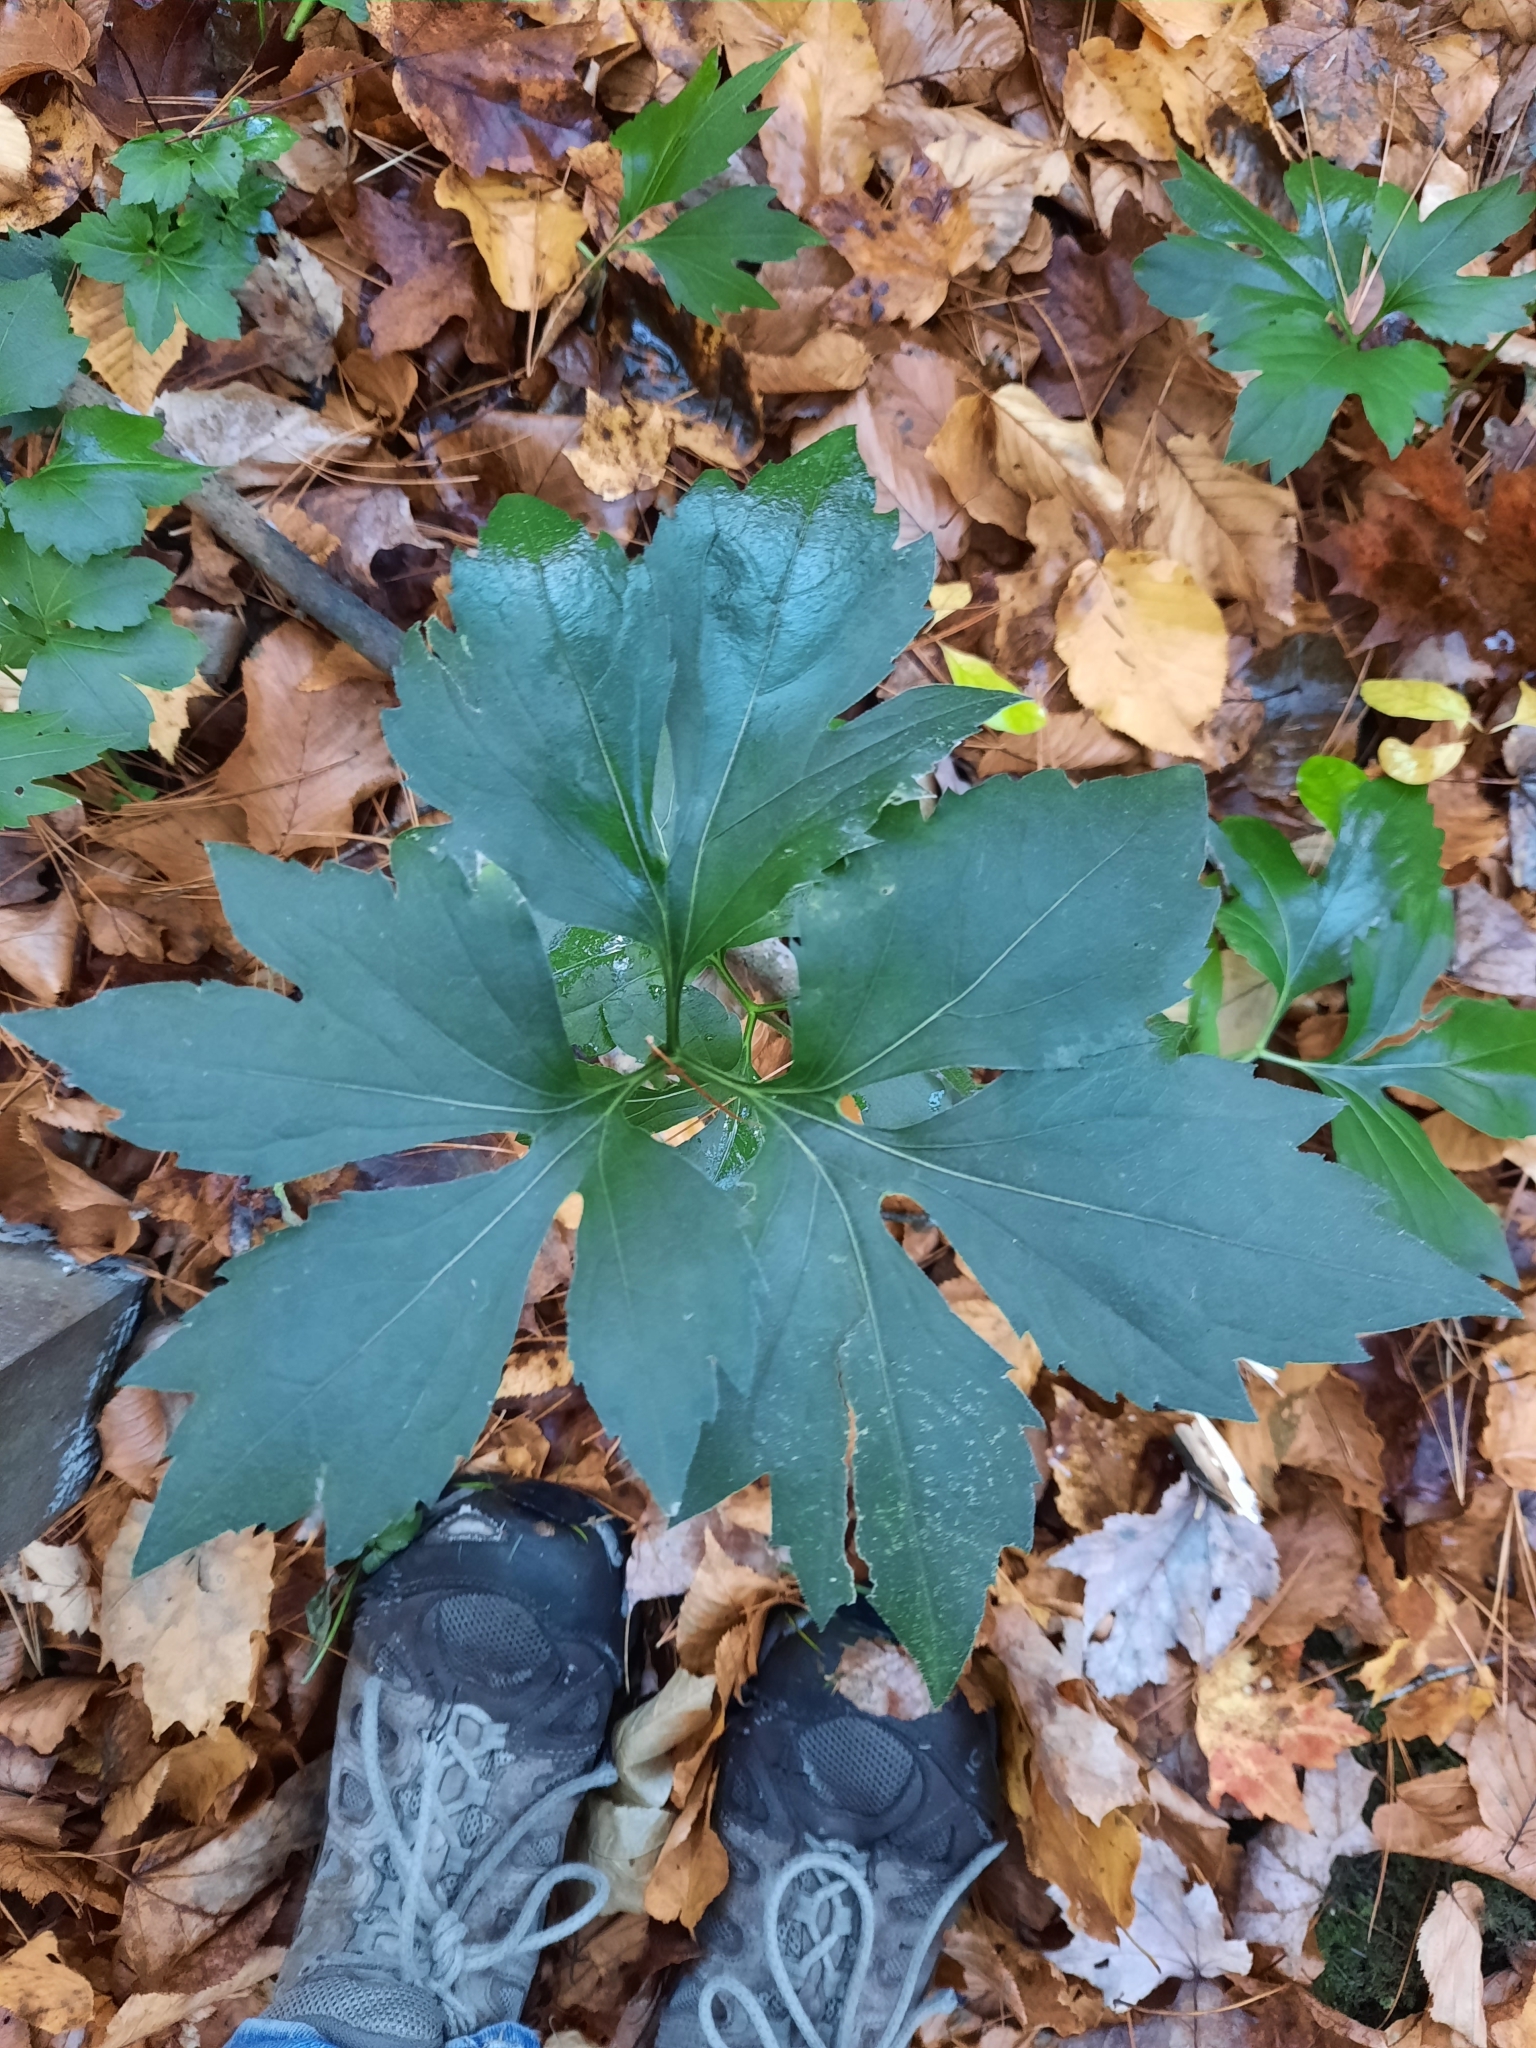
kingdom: Plantae
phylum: Tracheophyta
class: Magnoliopsida
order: Asterales
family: Asteraceae
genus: Rudbeckia
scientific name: Rudbeckia laciniata
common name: Coneflower
